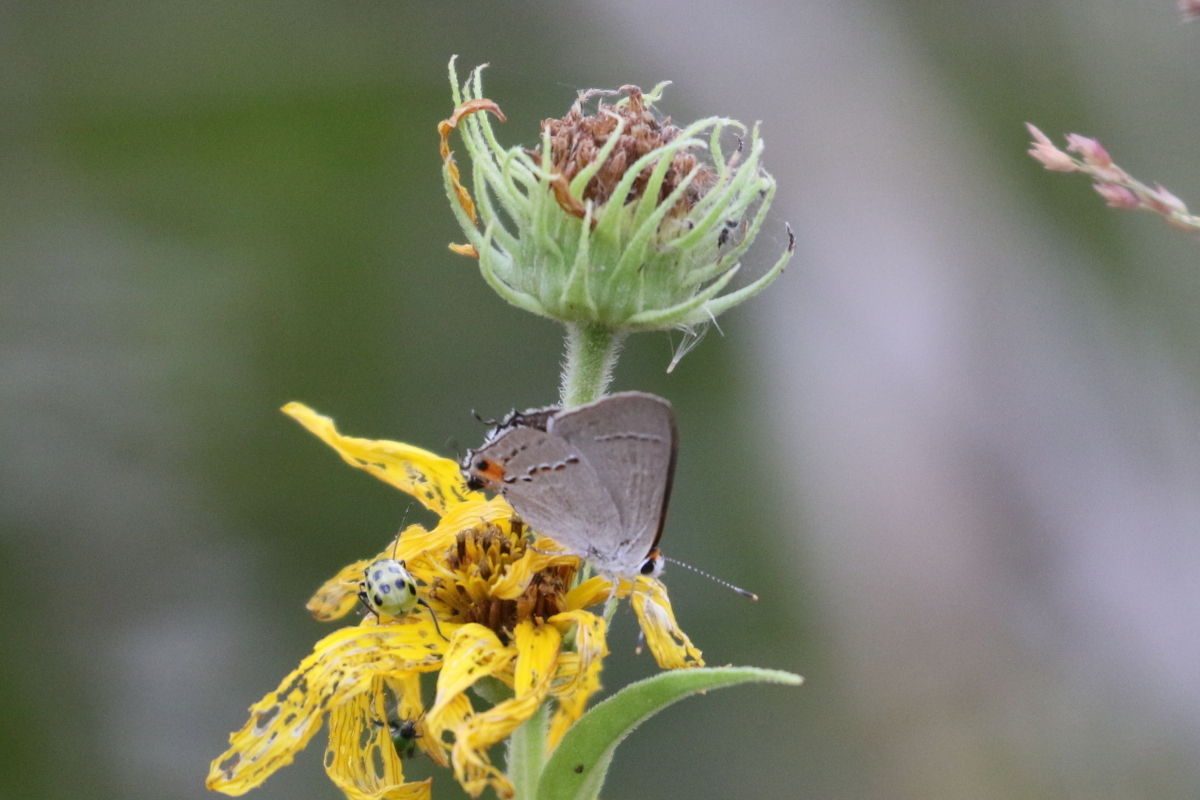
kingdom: Animalia
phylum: Arthropoda
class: Insecta
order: Lepidoptera
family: Lycaenidae
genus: Strymon
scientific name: Strymon melinus
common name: Gray hairstreak
